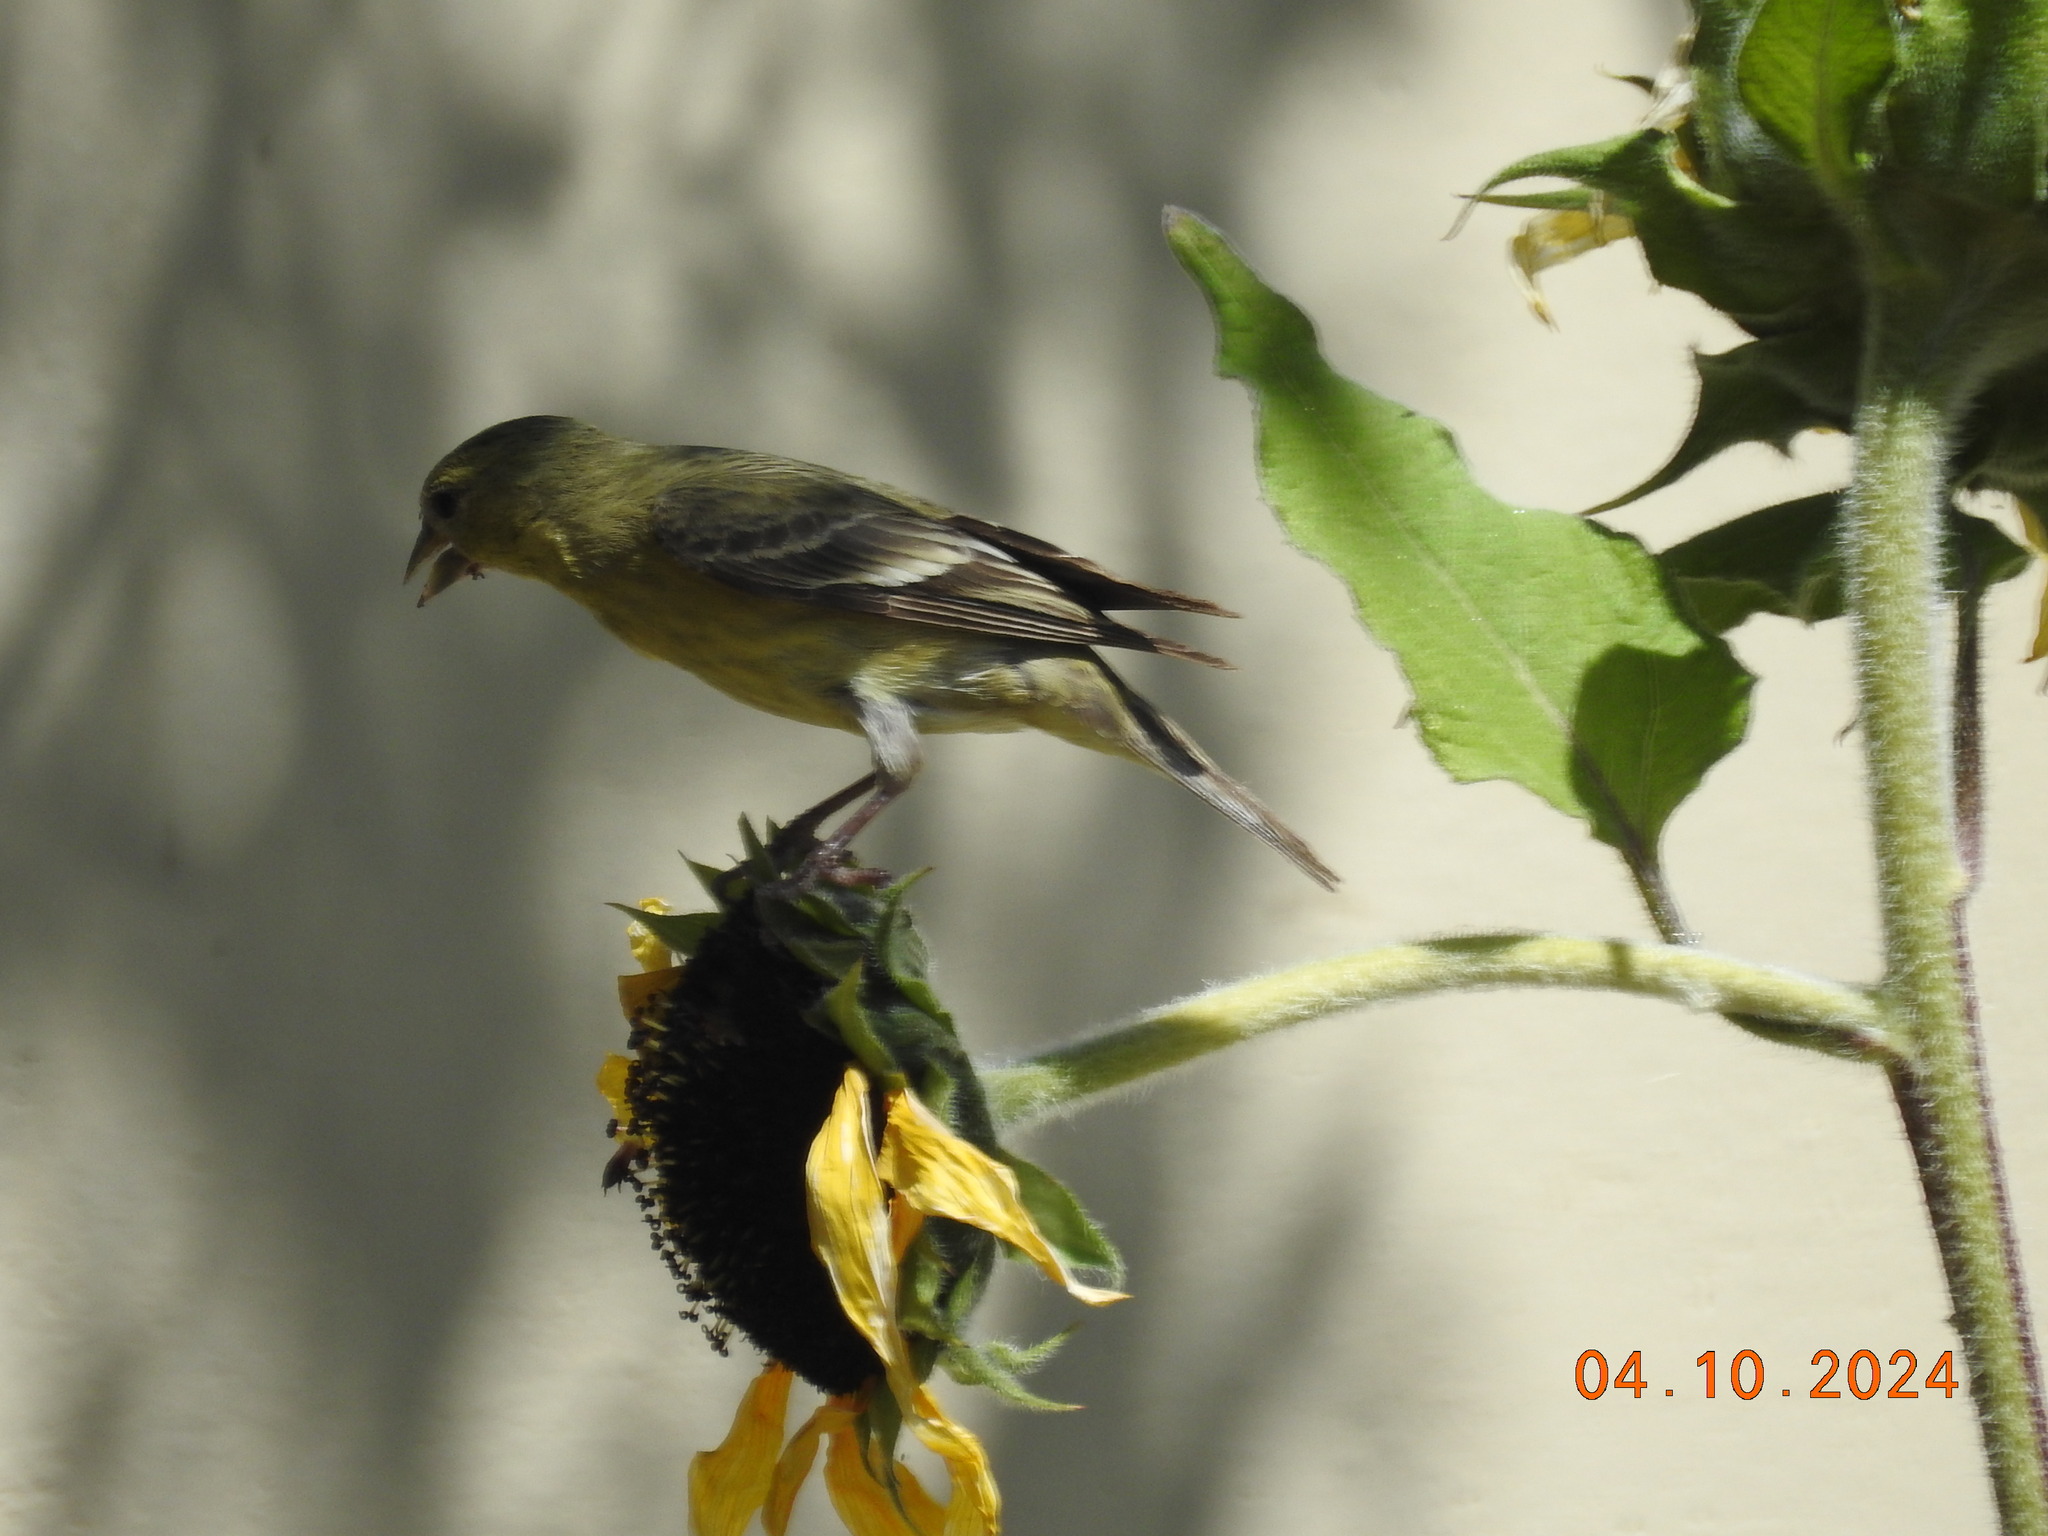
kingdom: Animalia
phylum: Chordata
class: Aves
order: Passeriformes
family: Fringillidae
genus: Spinus
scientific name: Spinus psaltria
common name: Lesser goldfinch
